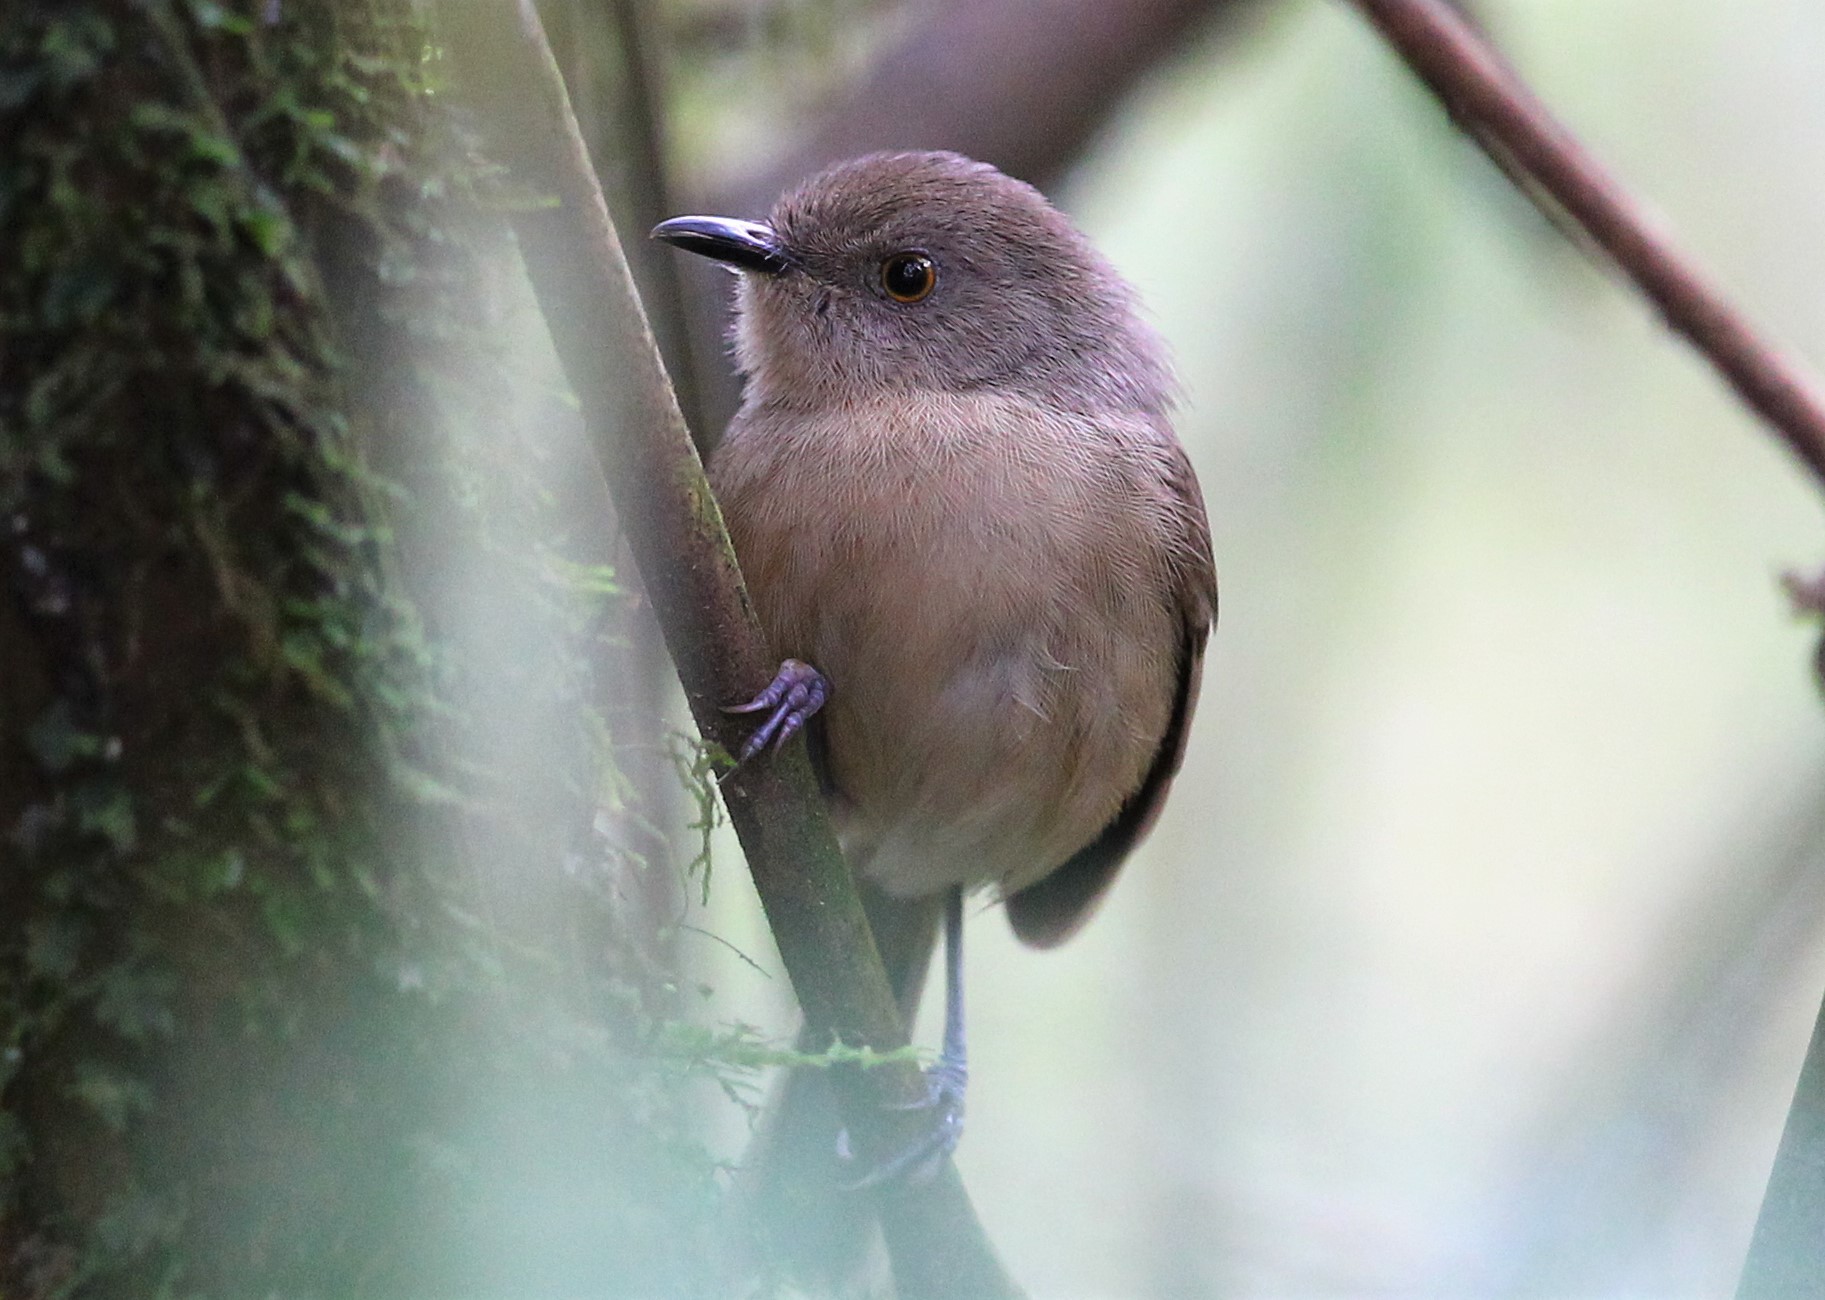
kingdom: Animalia
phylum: Chordata
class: Aves
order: Passeriformes
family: Vangidae
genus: Newtonia
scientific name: Newtonia amphichroa
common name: Dark newtonia
